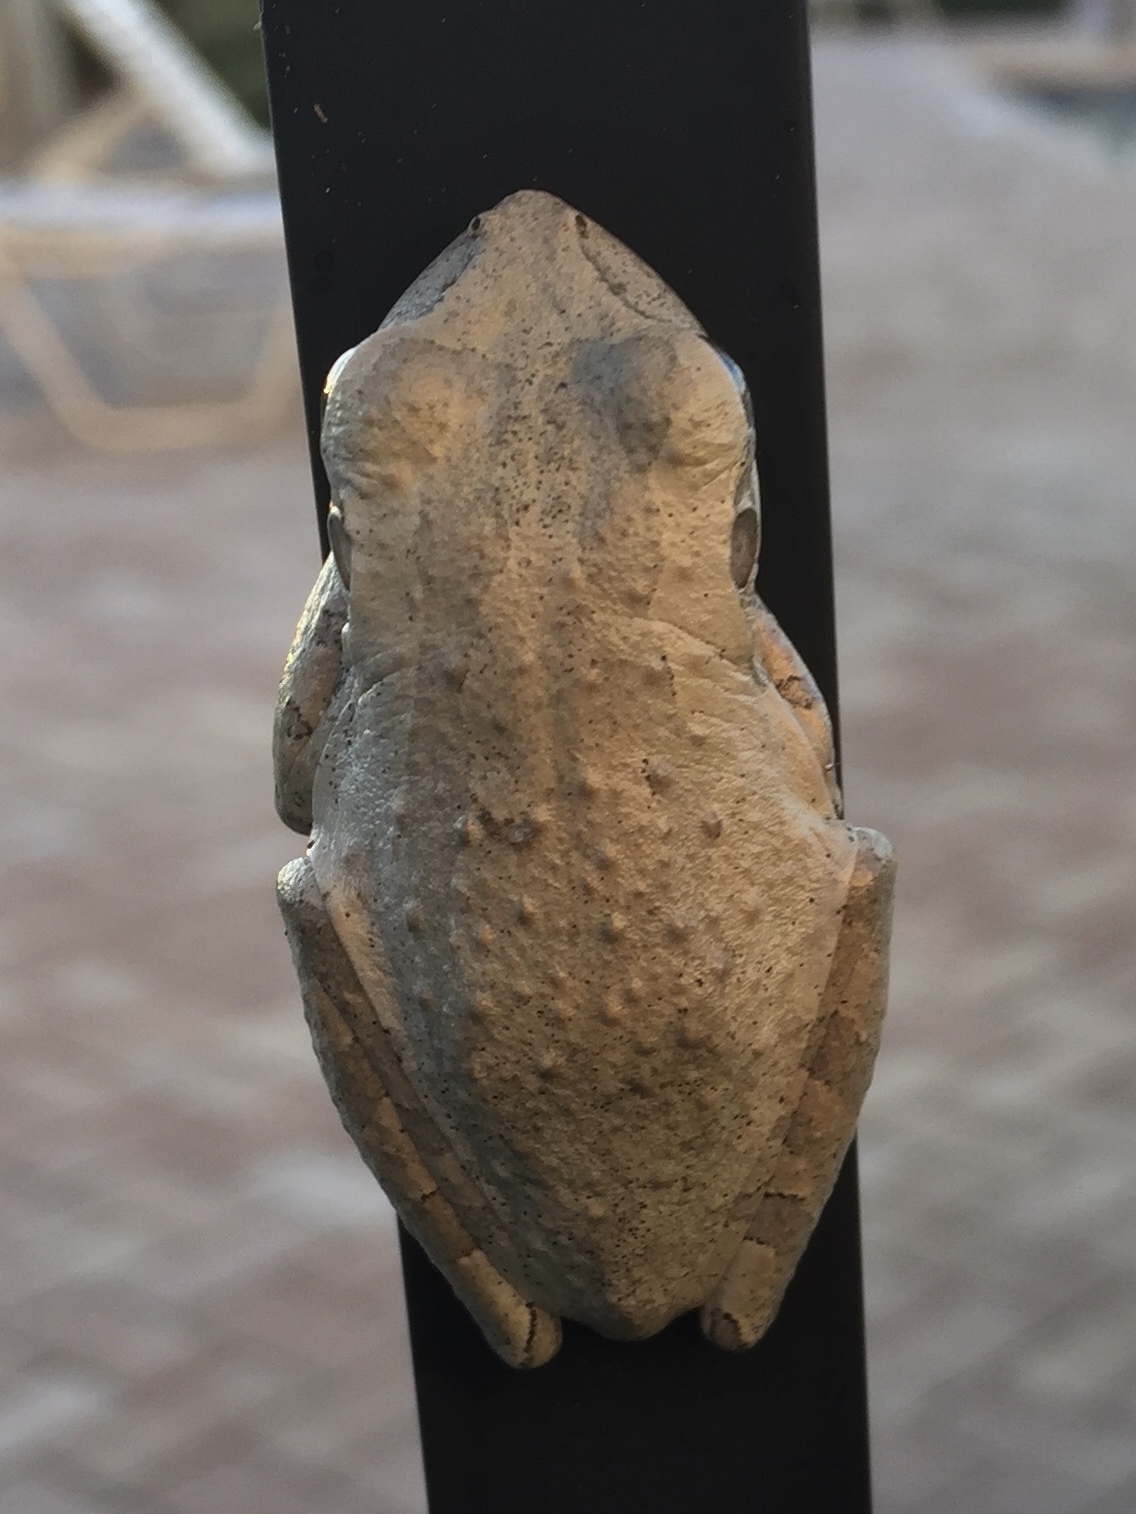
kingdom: Animalia
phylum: Chordata
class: Amphibia
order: Anura
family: Hylidae
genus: Osteopilus
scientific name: Osteopilus septentrionalis
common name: Cuban treefrog
